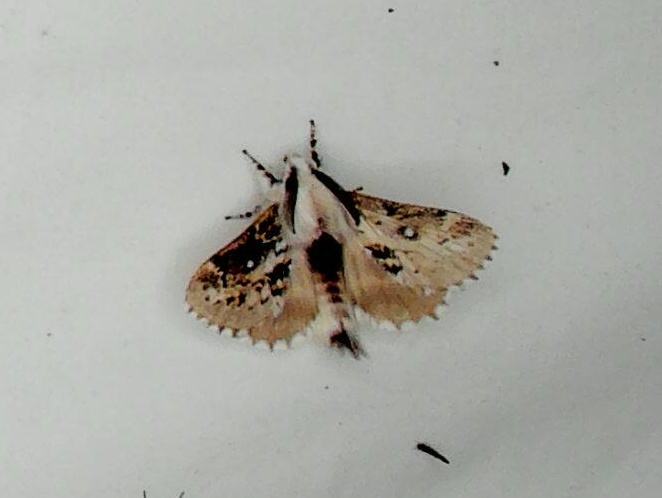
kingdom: Animalia
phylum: Arthropoda
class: Insecta
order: Lepidoptera
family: Lasiocampidae
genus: Porela
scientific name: Porela delineata
